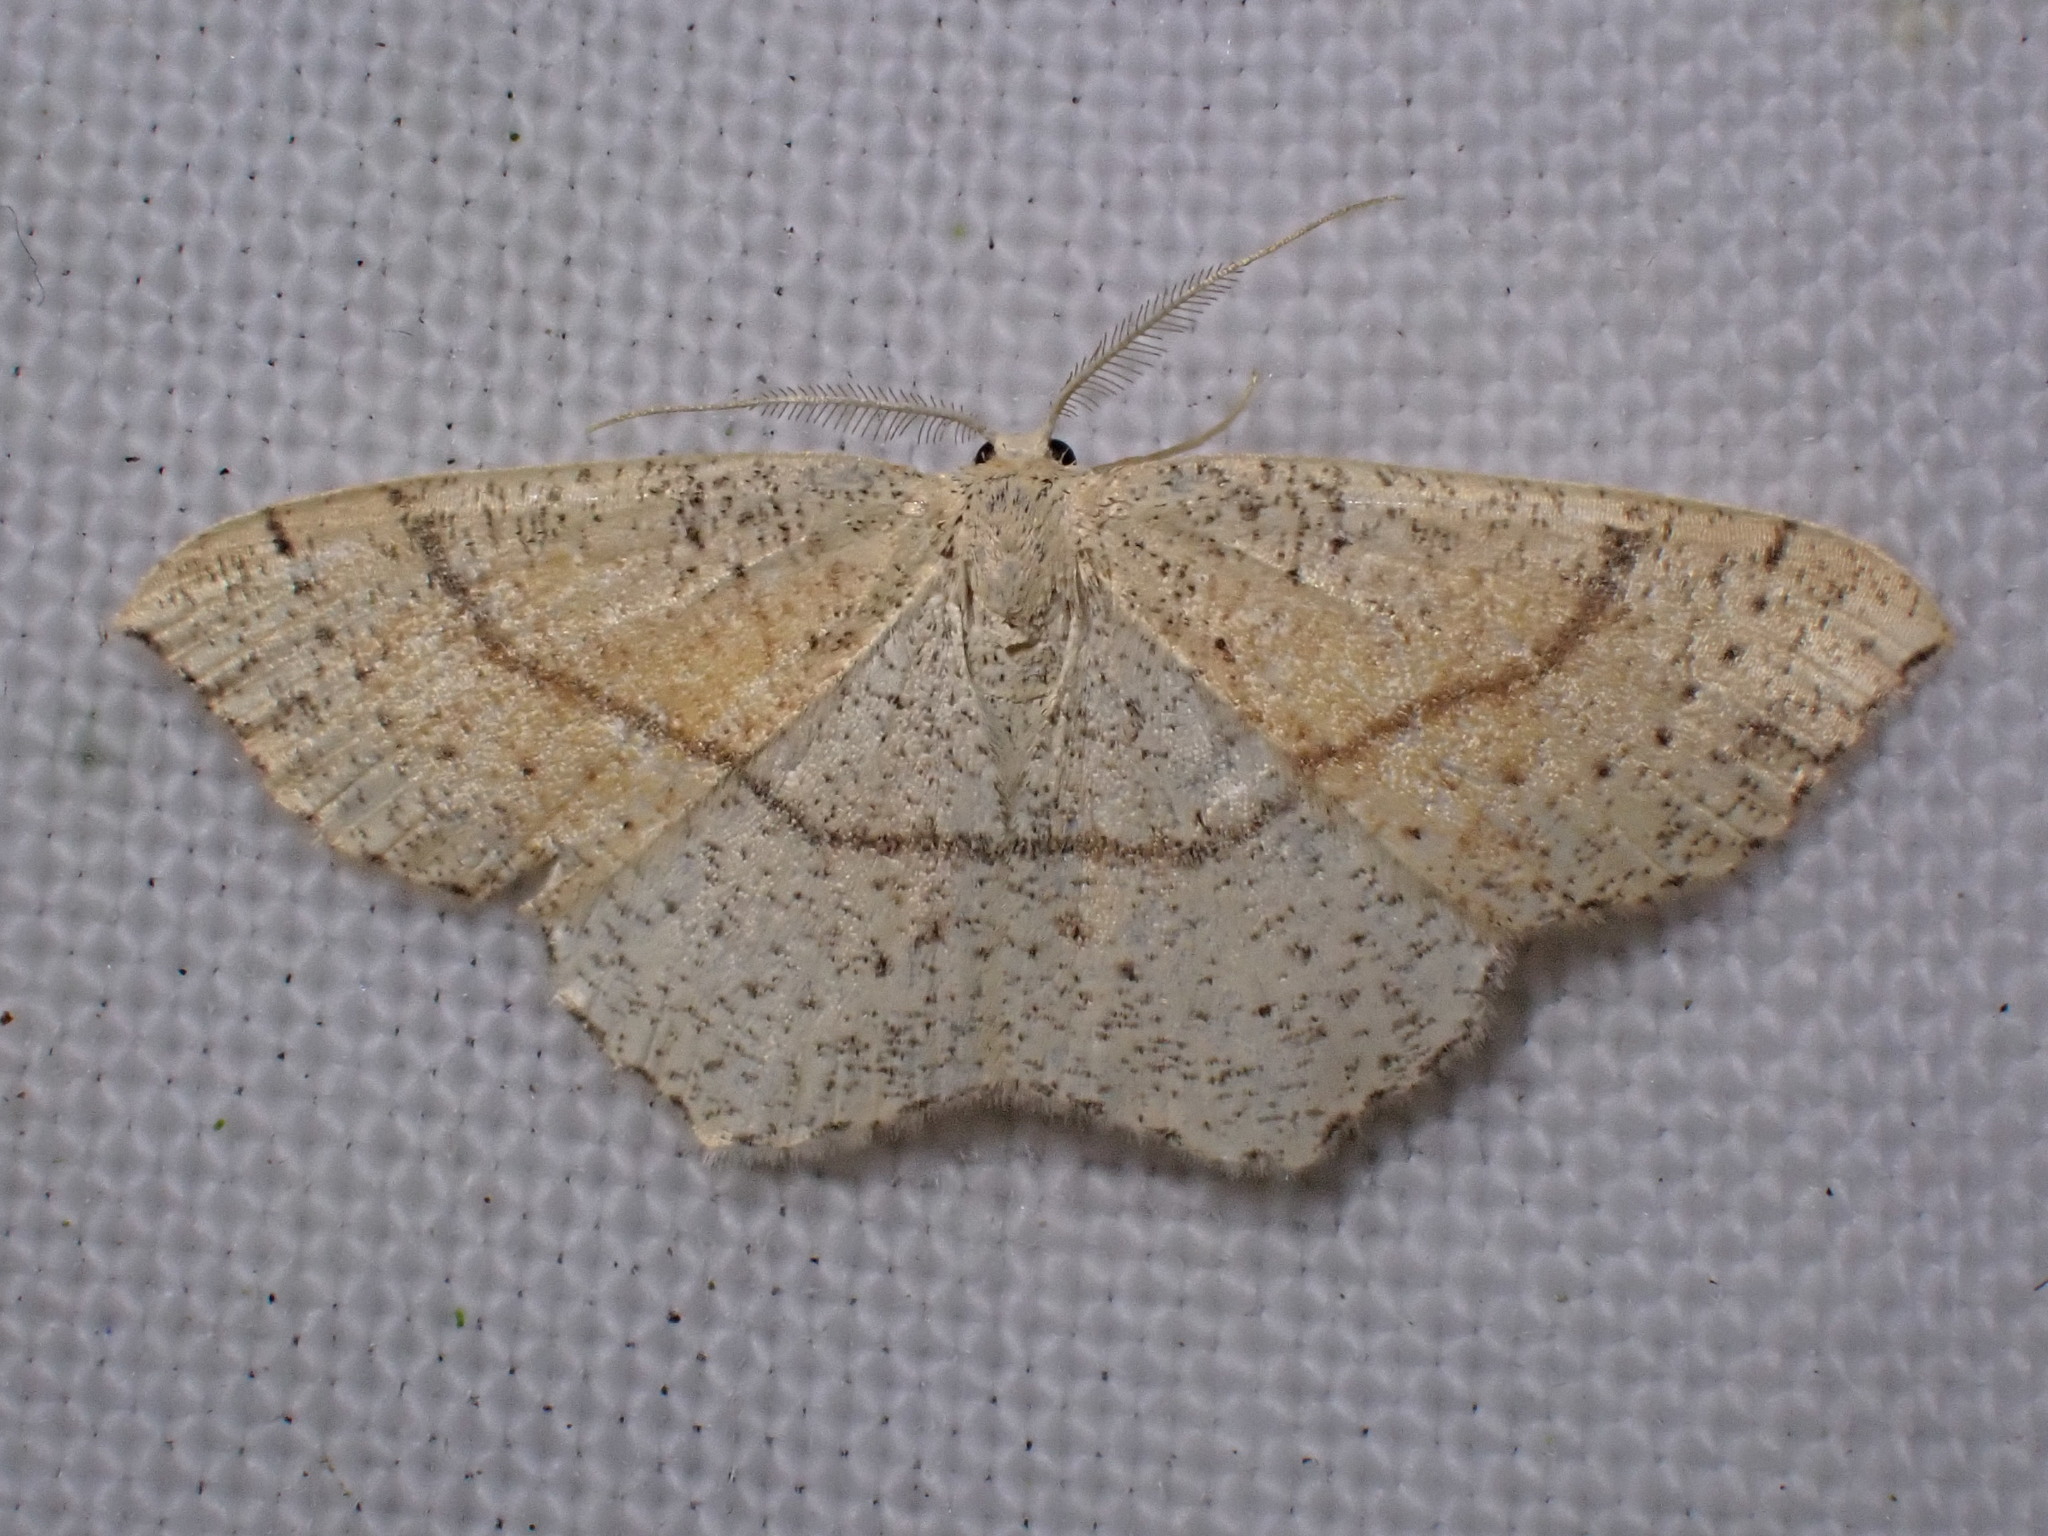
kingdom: Animalia
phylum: Arthropoda
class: Insecta
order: Lepidoptera
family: Geometridae
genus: Cyclophora
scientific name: Cyclophora punctaria
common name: Maiden's blush
